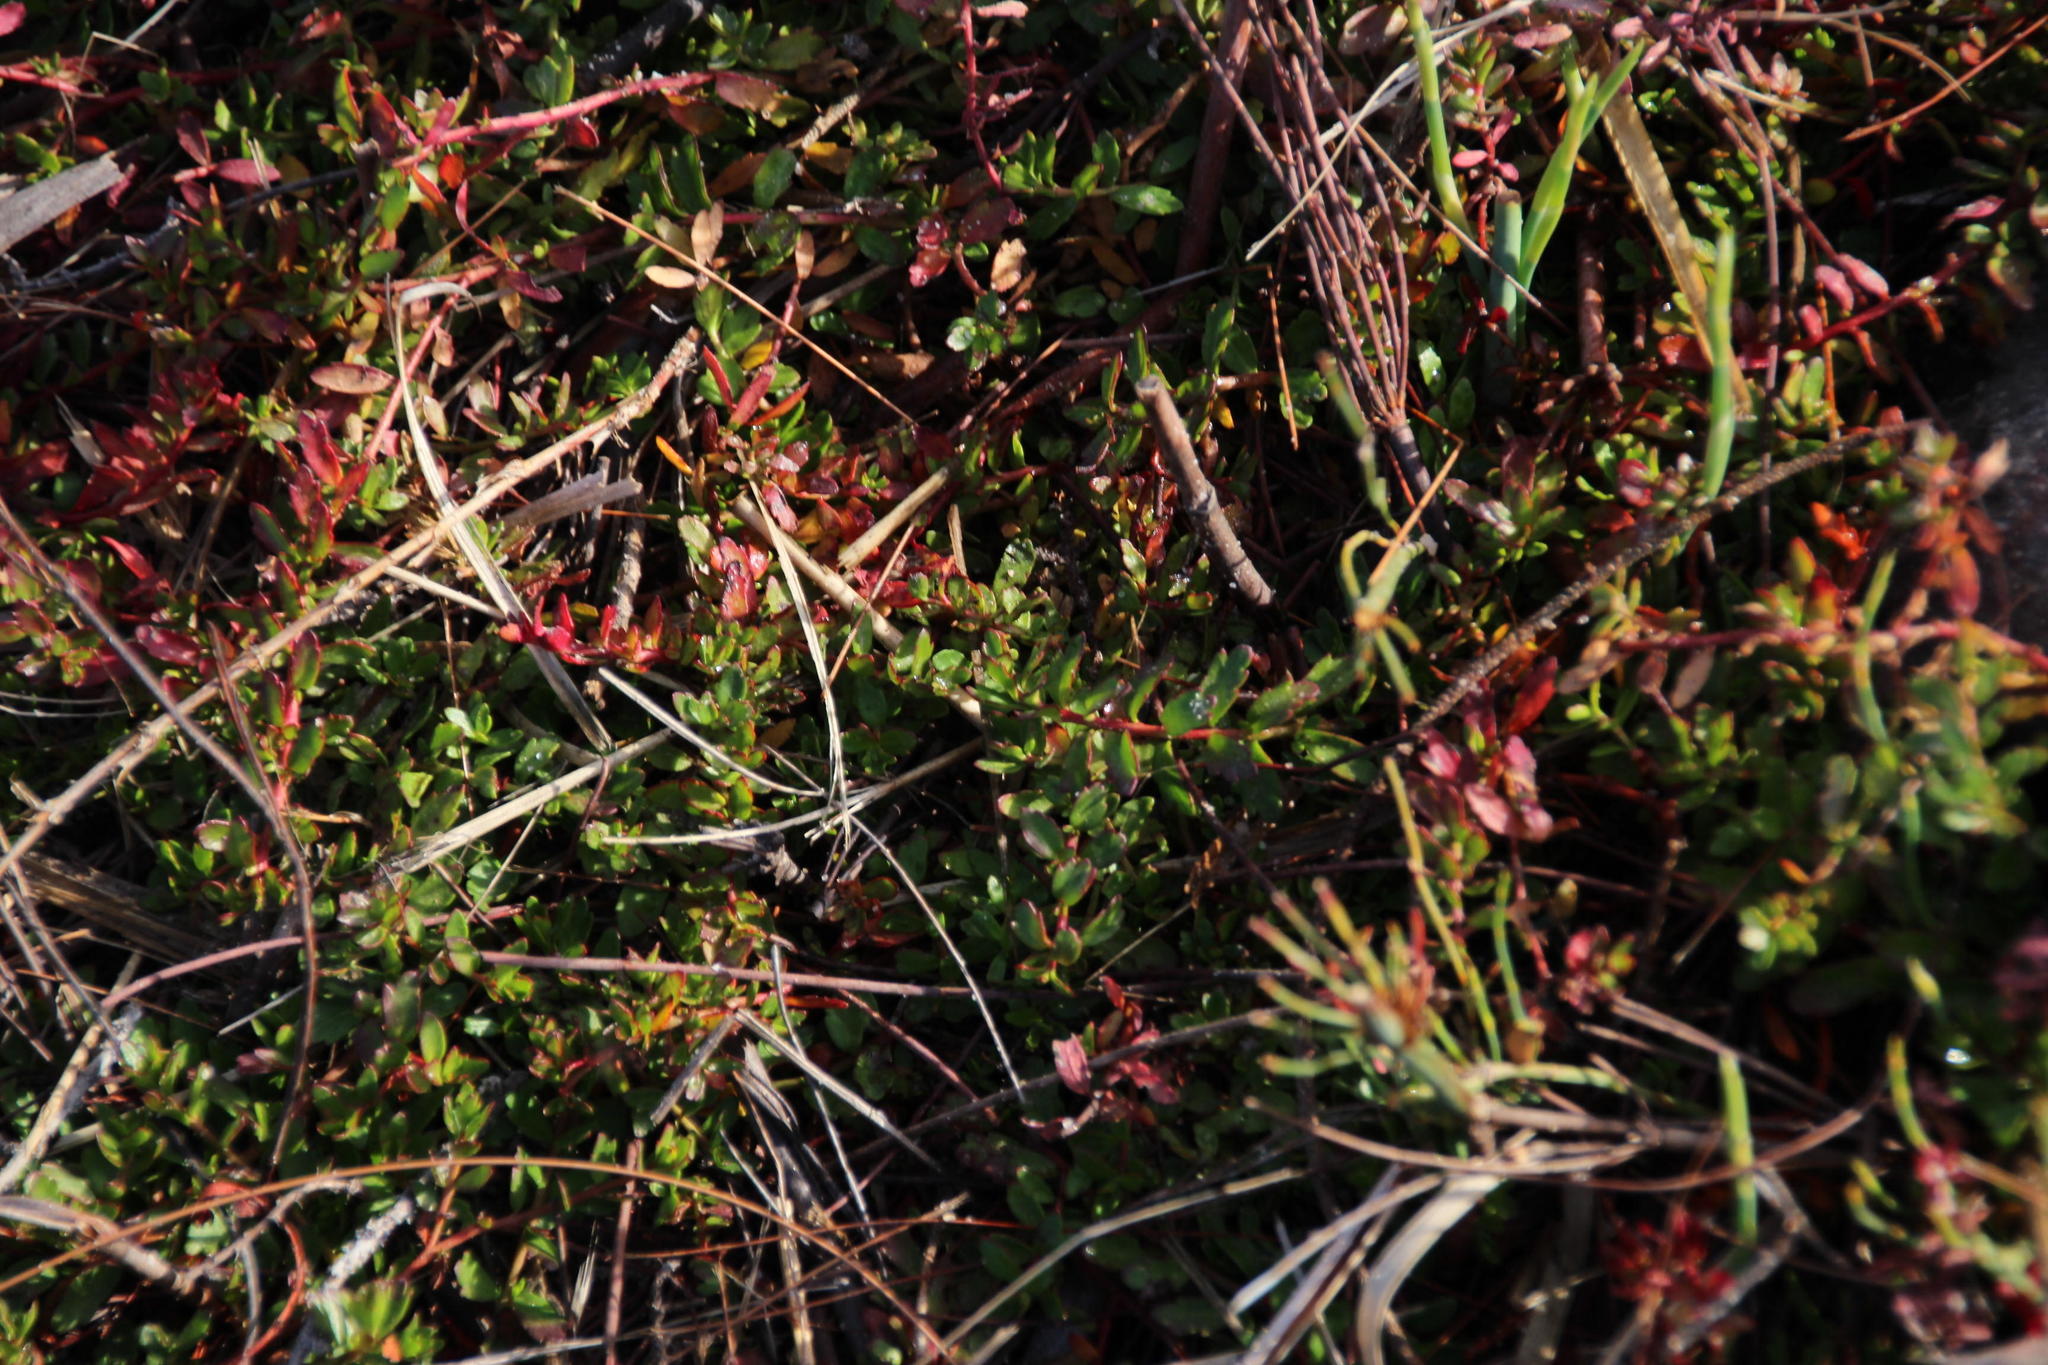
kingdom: Plantae
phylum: Tracheophyta
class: Magnoliopsida
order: Saxifragales
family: Haloragaceae
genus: Laurembergia
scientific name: Laurembergia repens
